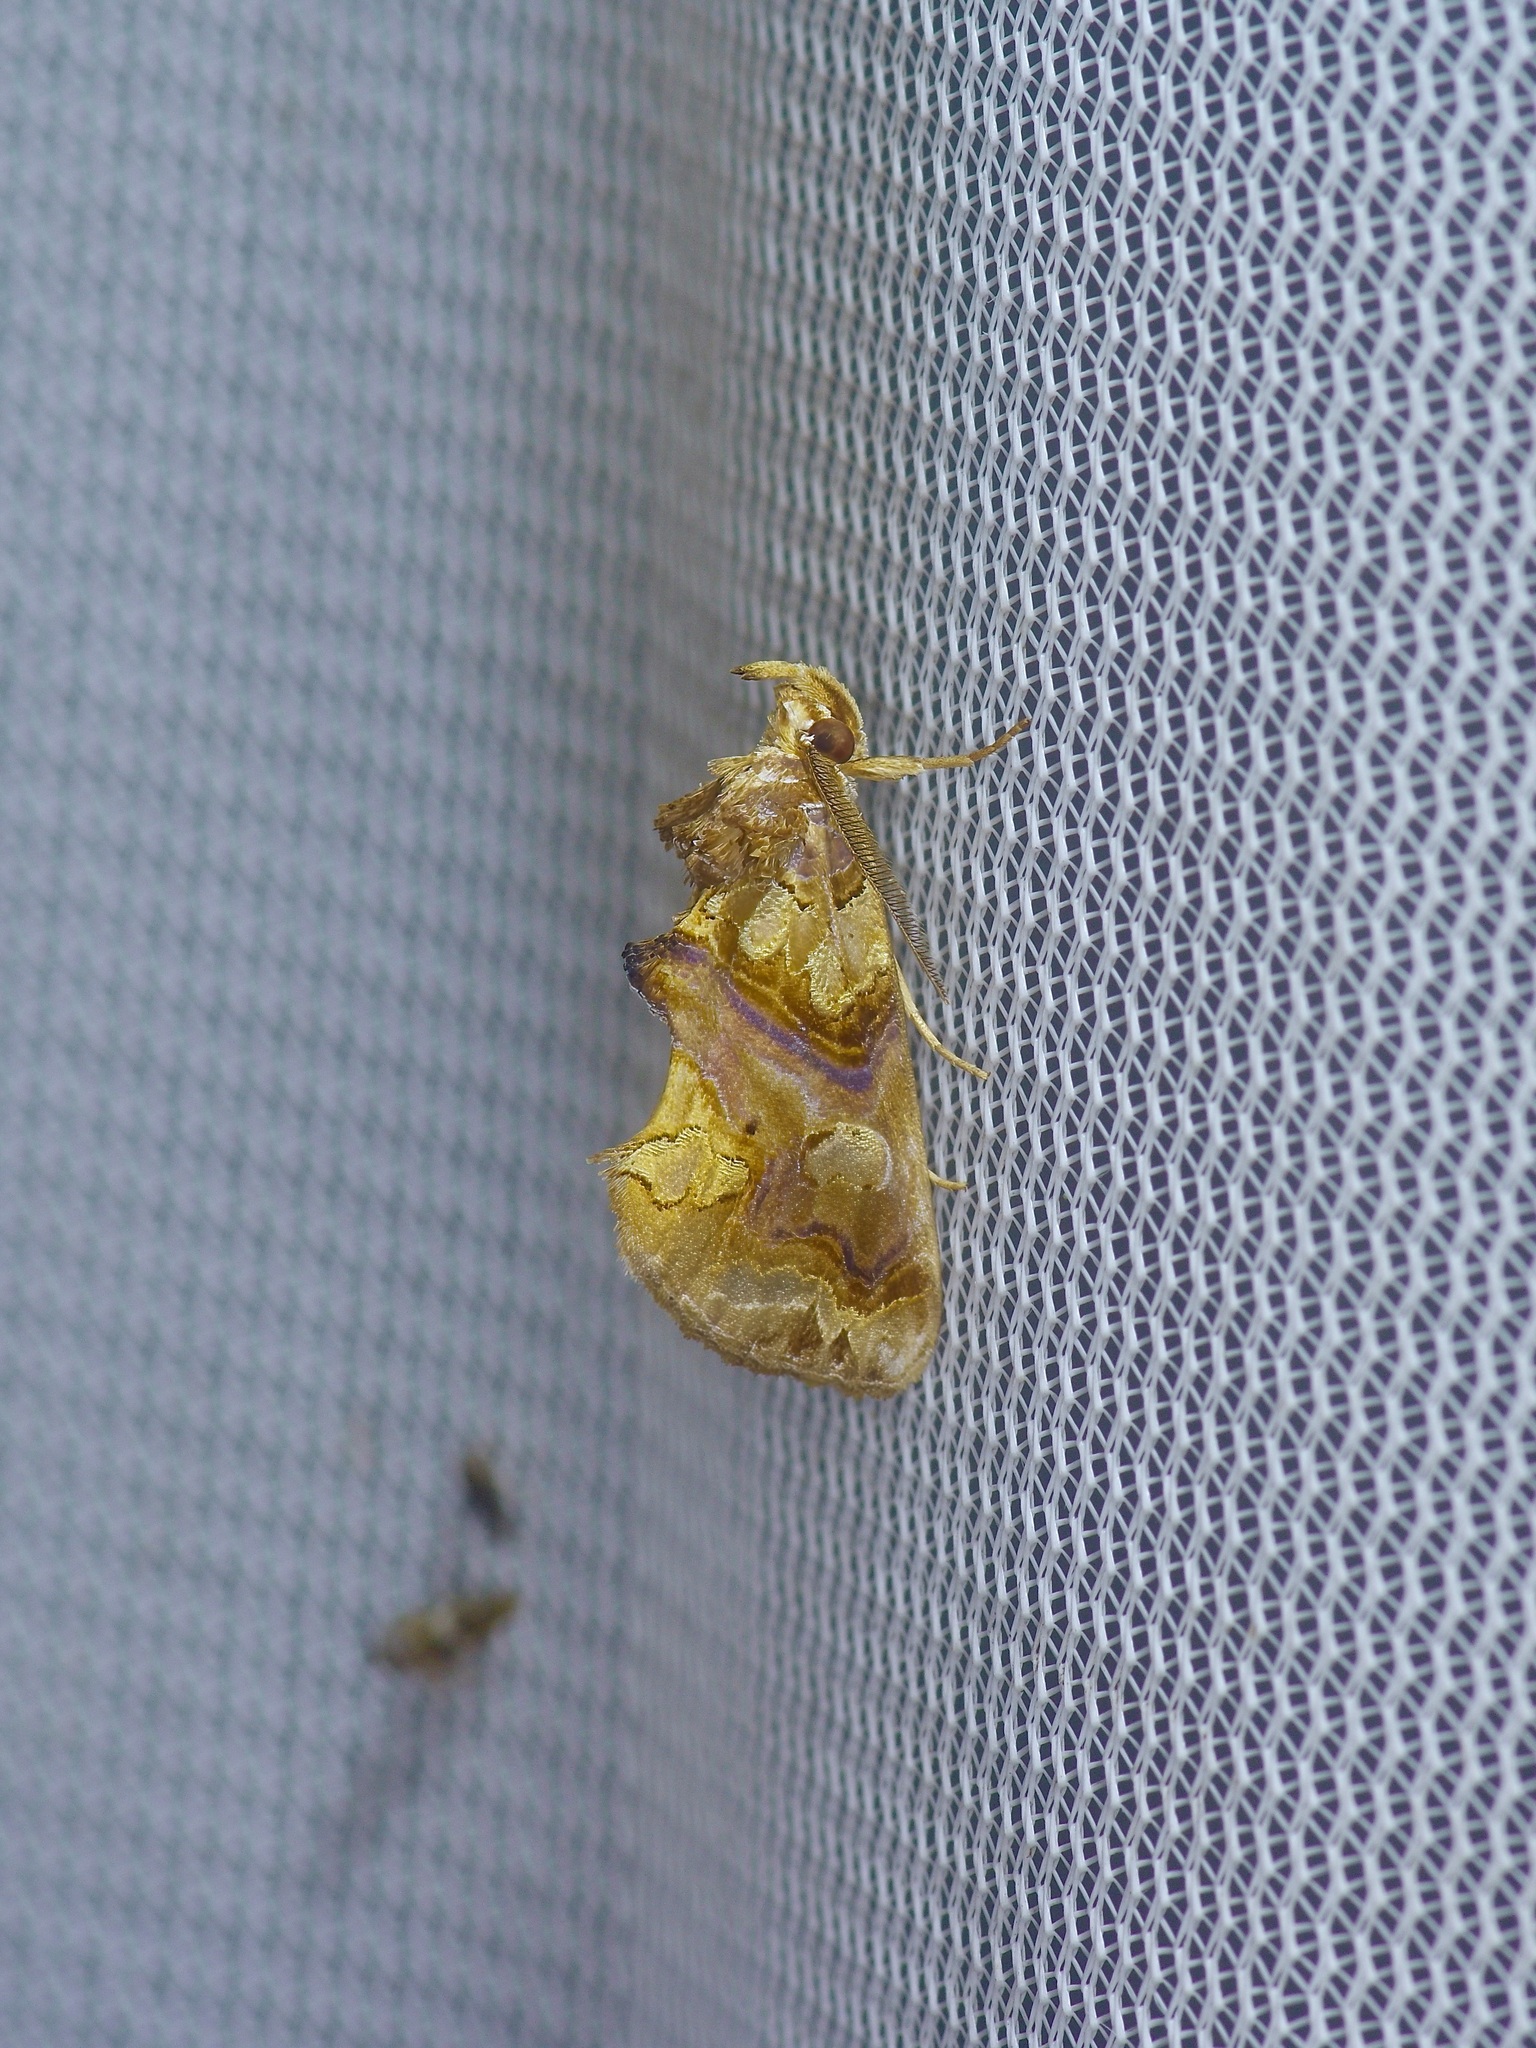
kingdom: Animalia
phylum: Arthropoda
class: Insecta
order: Lepidoptera
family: Erebidae
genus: Plusiodonta
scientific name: Plusiodonta compressipalpis
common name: Moonseed moth
